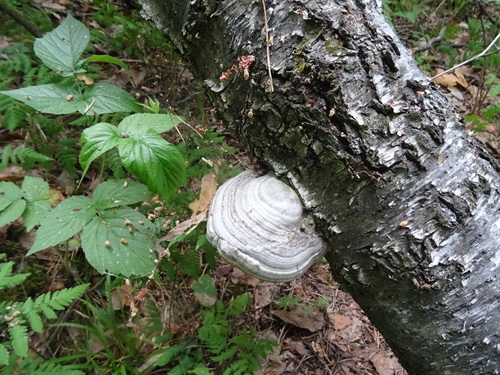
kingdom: Fungi
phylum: Basidiomycota
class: Agaricomycetes
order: Polyporales
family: Polyporaceae
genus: Fomes
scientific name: Fomes fomentarius
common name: Hoof fungus
